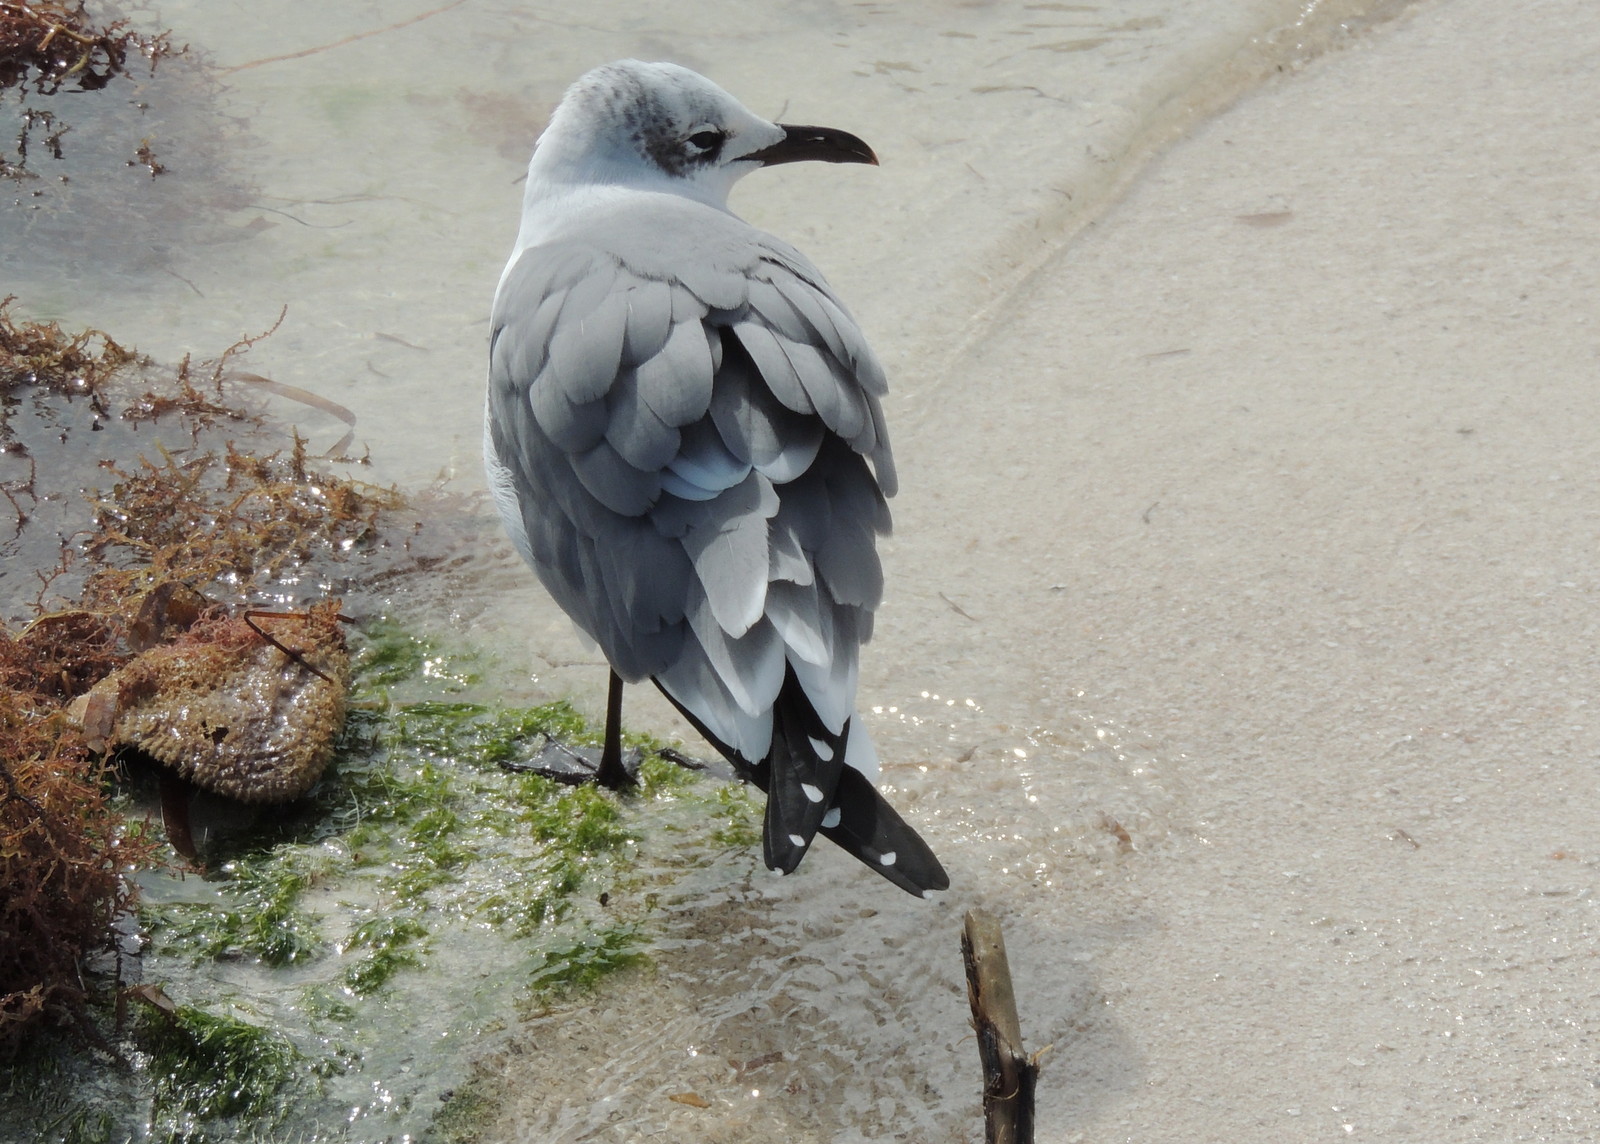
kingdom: Animalia
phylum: Chordata
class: Aves
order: Charadriiformes
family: Laridae
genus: Leucophaeus
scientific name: Leucophaeus atricilla
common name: Laughing gull
